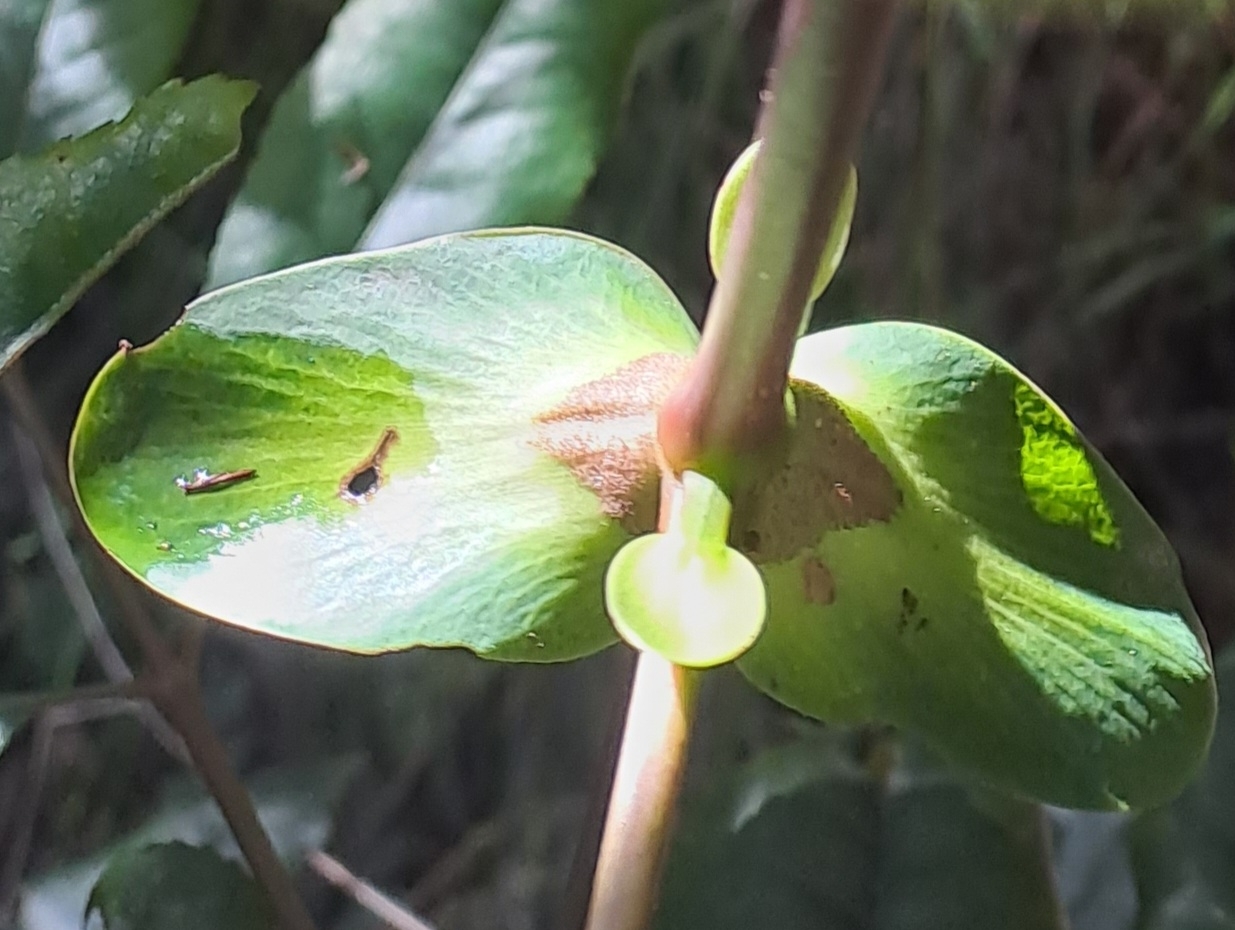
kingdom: Plantae
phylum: Tracheophyta
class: Magnoliopsida
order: Oxalidales
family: Cunoniaceae
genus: Cunonia
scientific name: Cunonia capensis
